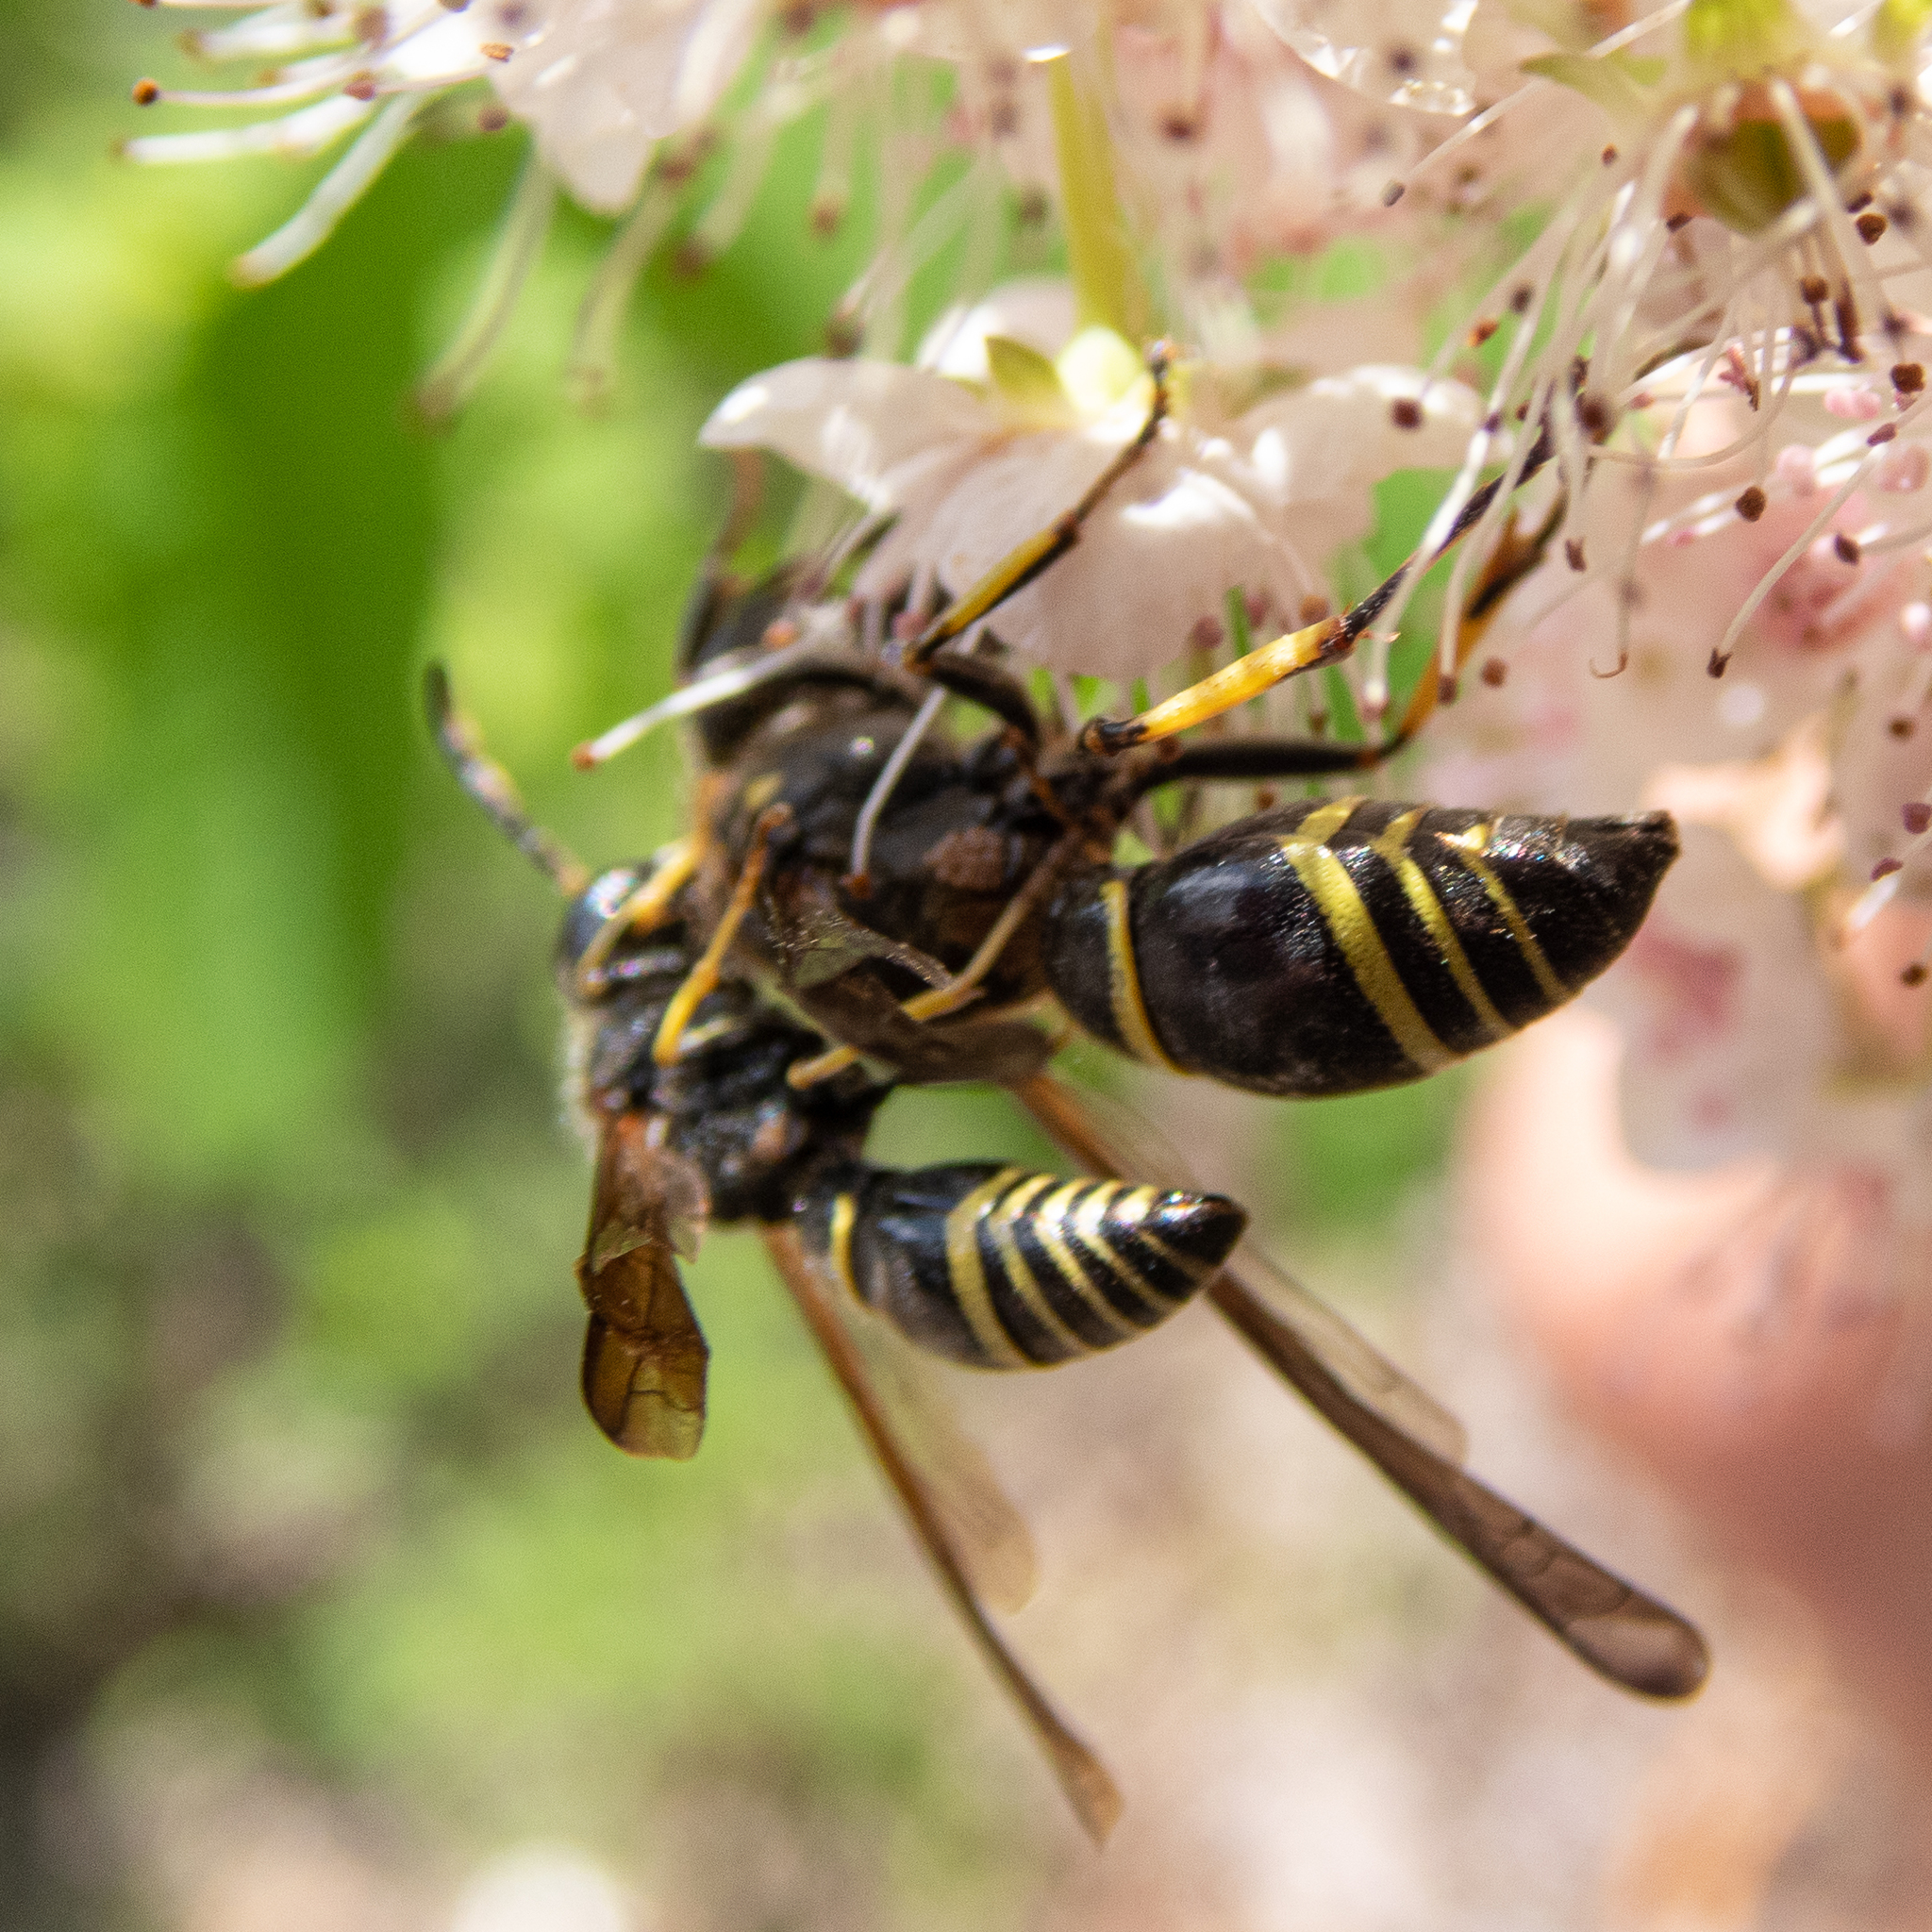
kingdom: Animalia
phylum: Arthropoda
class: Insecta
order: Hymenoptera
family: Vespidae
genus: Ancistrocerus
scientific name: Ancistrocerus
